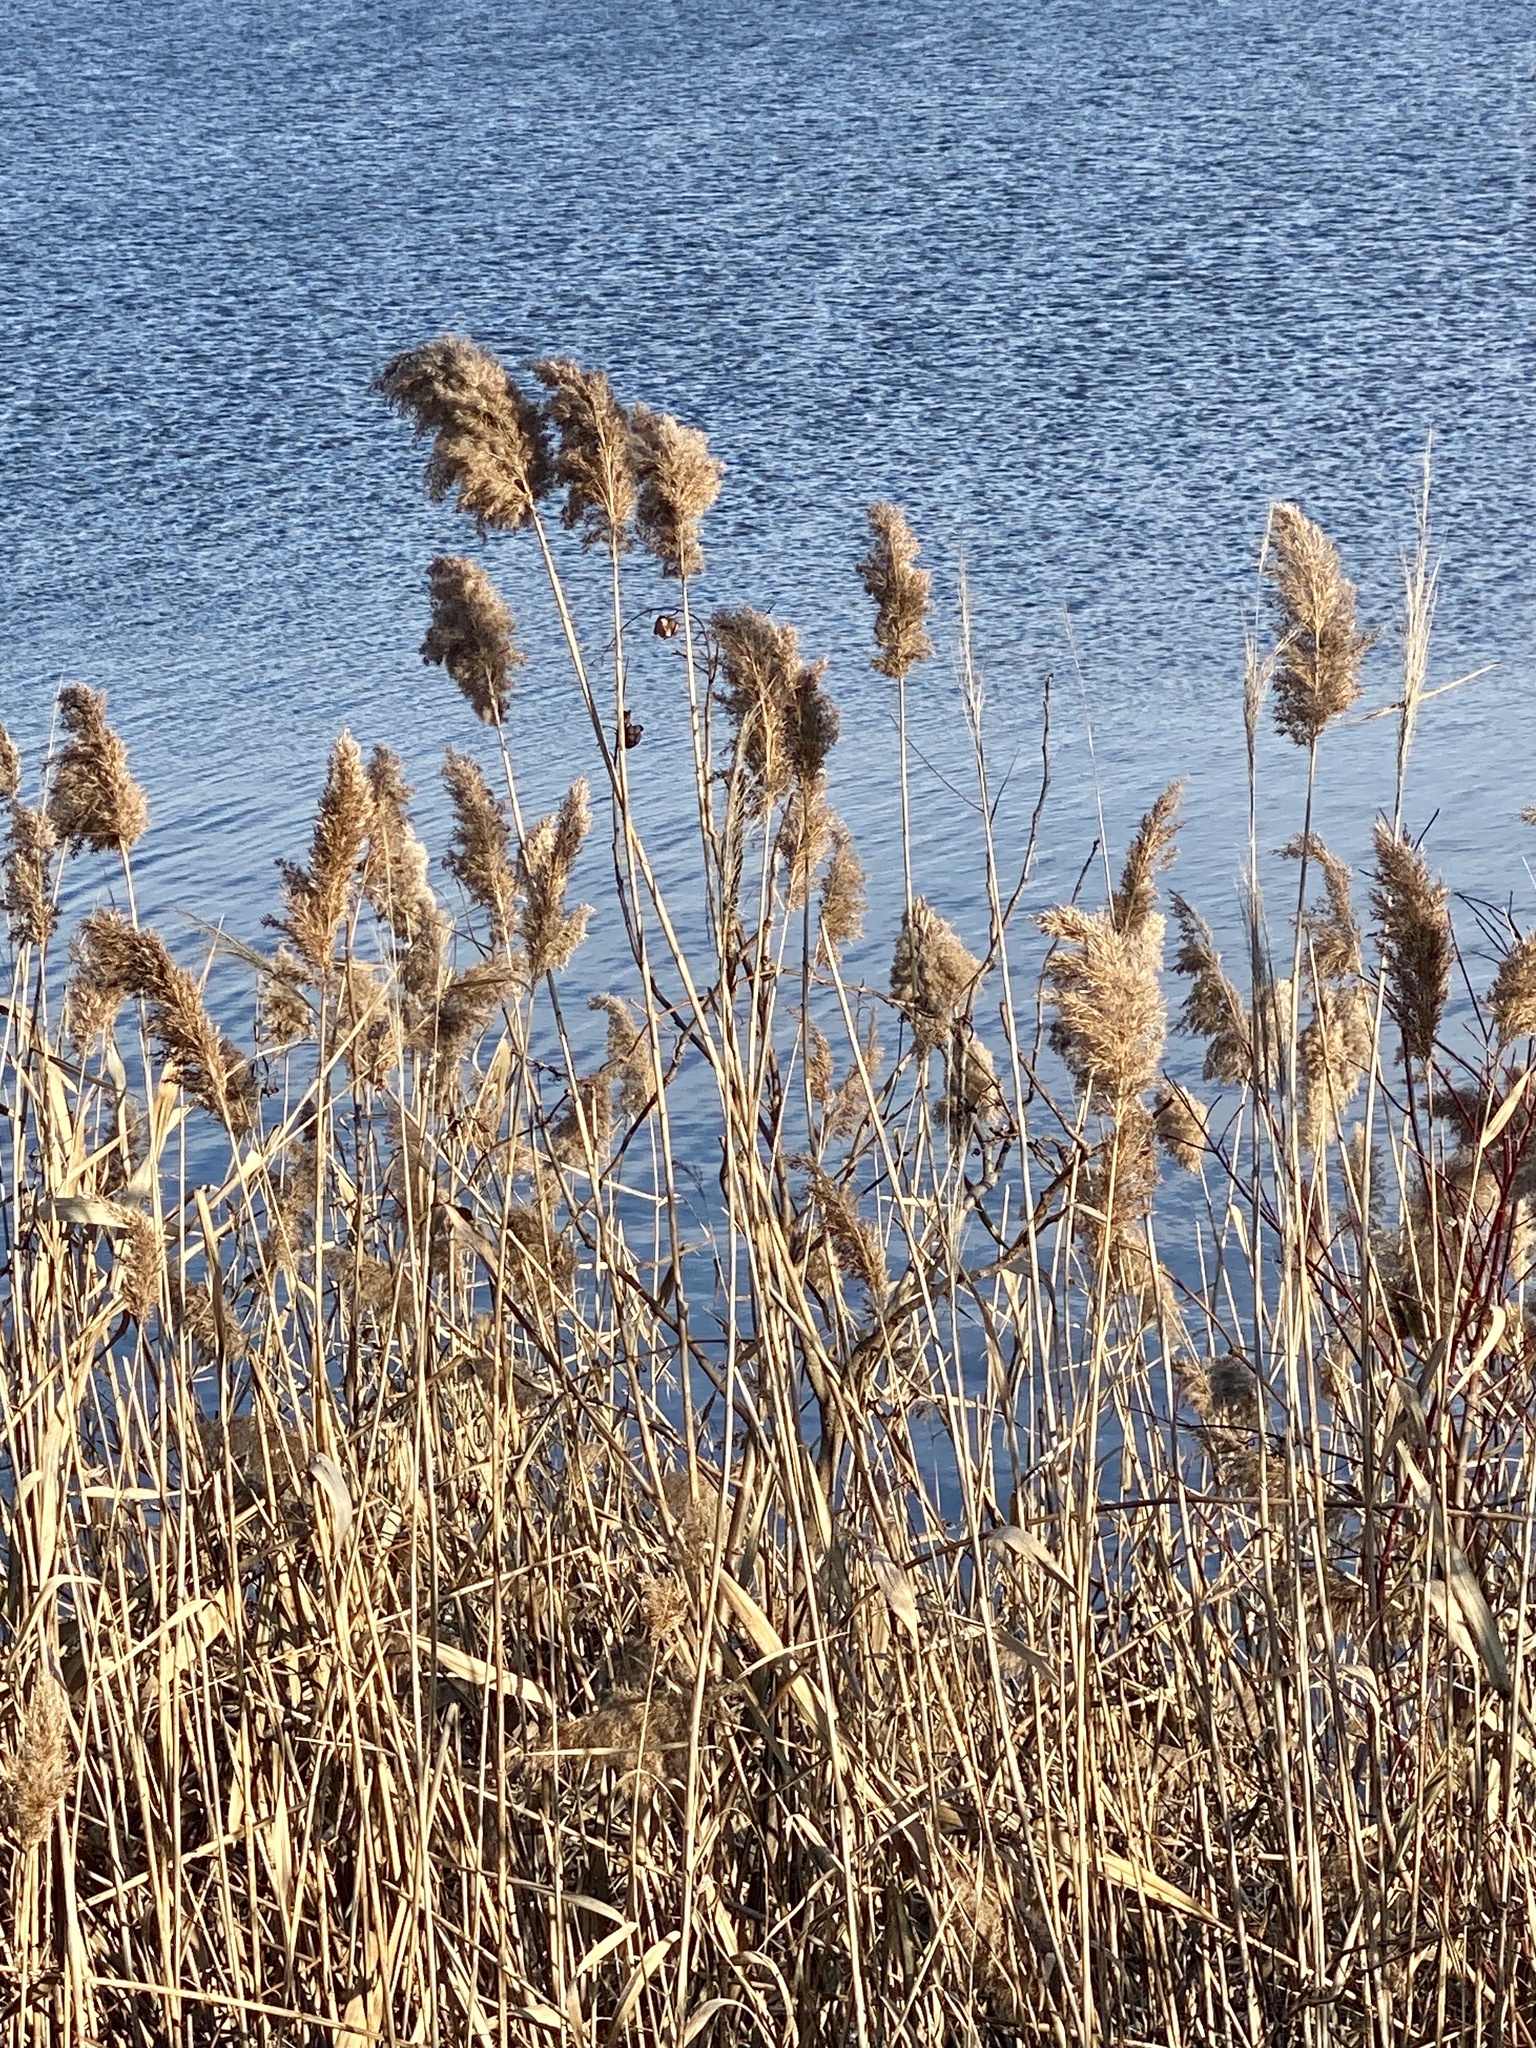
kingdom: Plantae
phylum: Tracheophyta
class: Liliopsida
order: Poales
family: Poaceae
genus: Phragmites
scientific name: Phragmites australis
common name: Common reed
